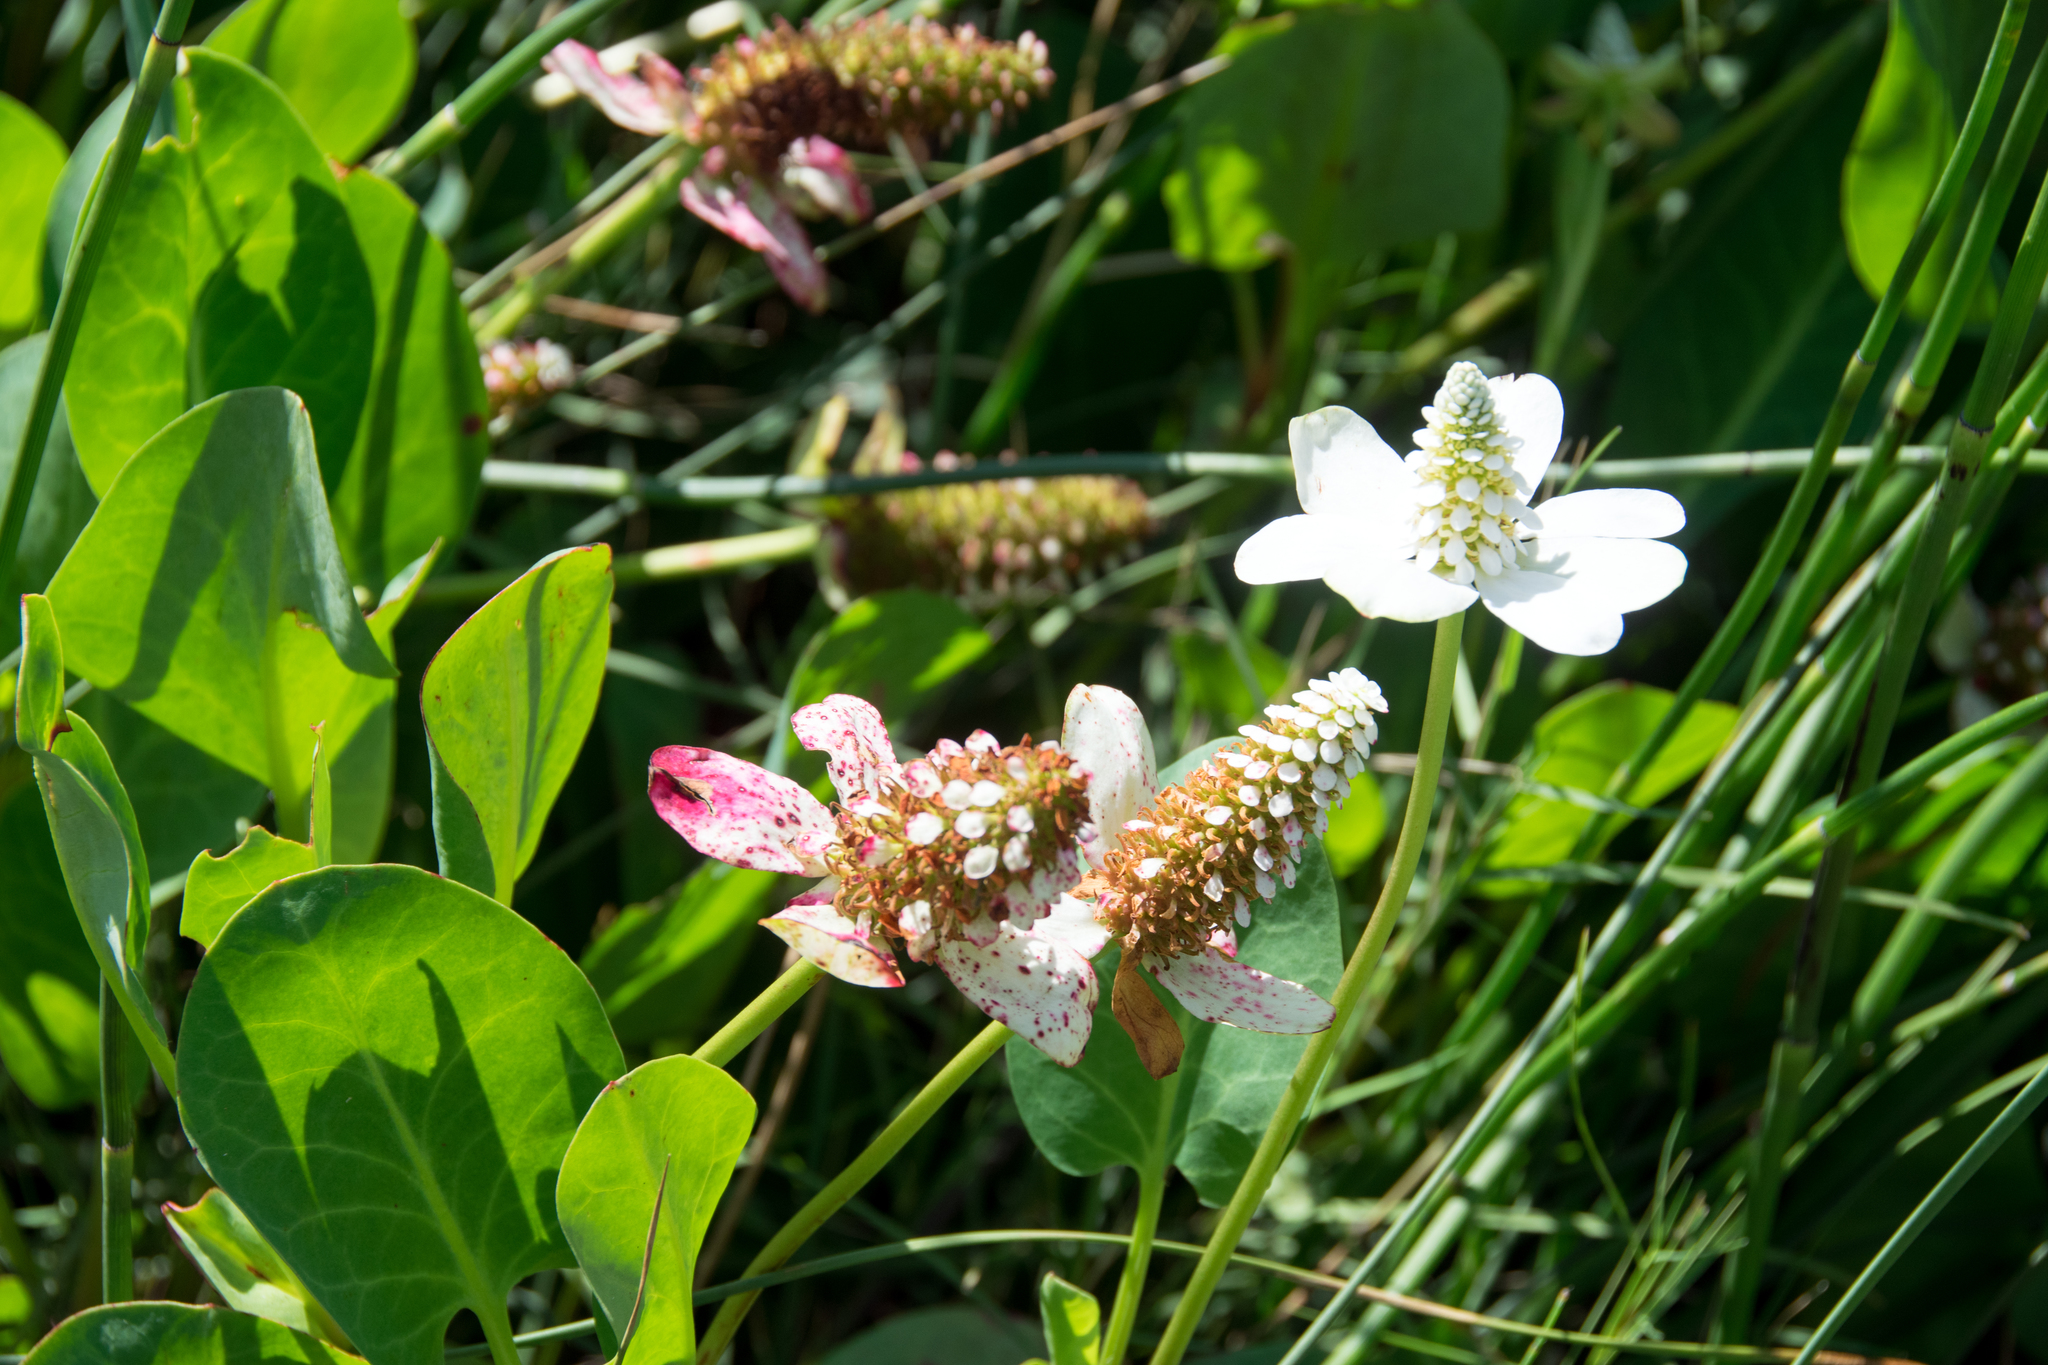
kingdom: Plantae
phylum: Tracheophyta
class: Magnoliopsida
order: Piperales
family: Saururaceae
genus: Anemopsis
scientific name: Anemopsis californica
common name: Apache-beads
